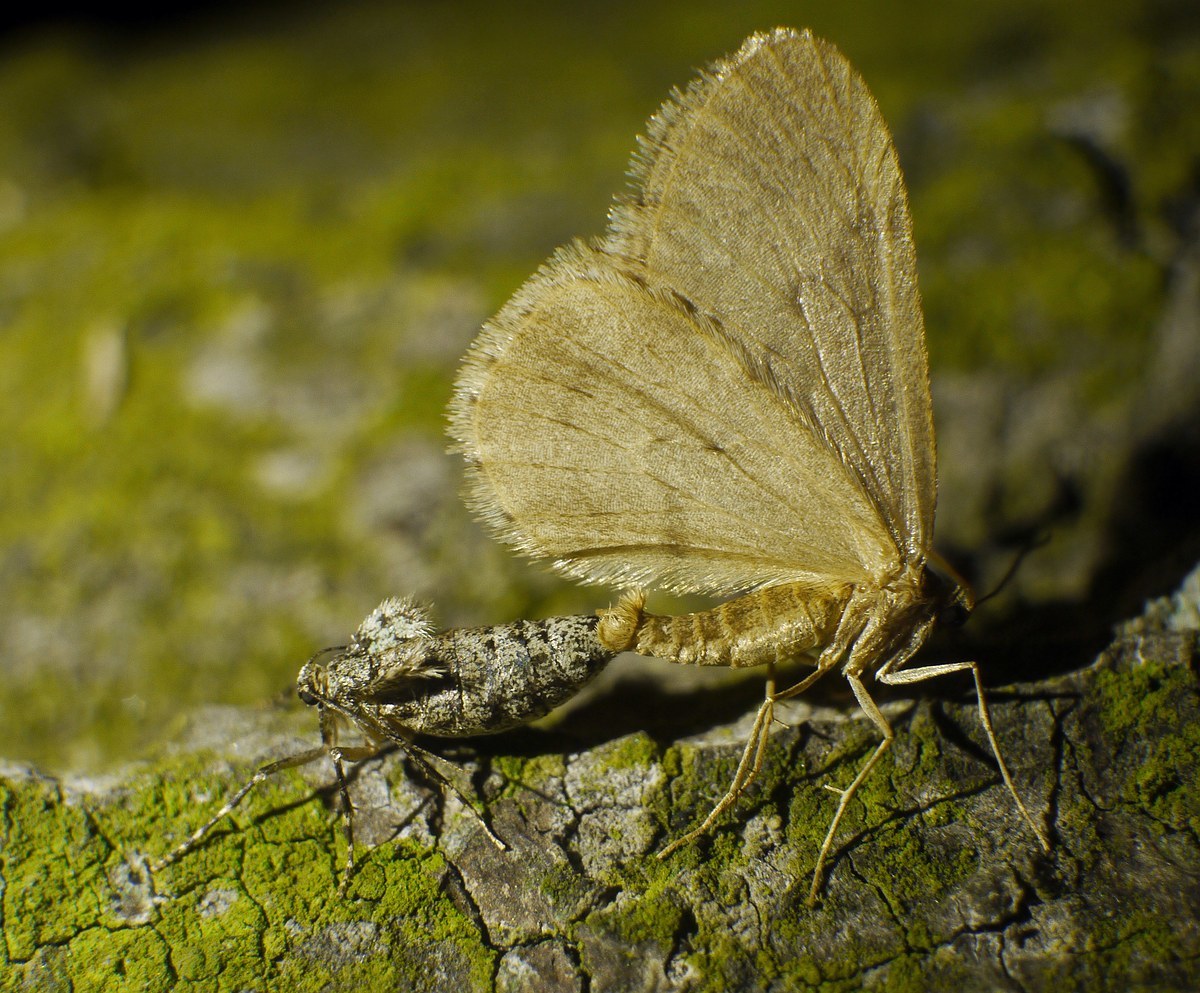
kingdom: Animalia
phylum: Arthropoda
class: Insecta
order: Lepidoptera
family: Geometridae
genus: Operophtera
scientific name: Operophtera brumata
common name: Winter moth
